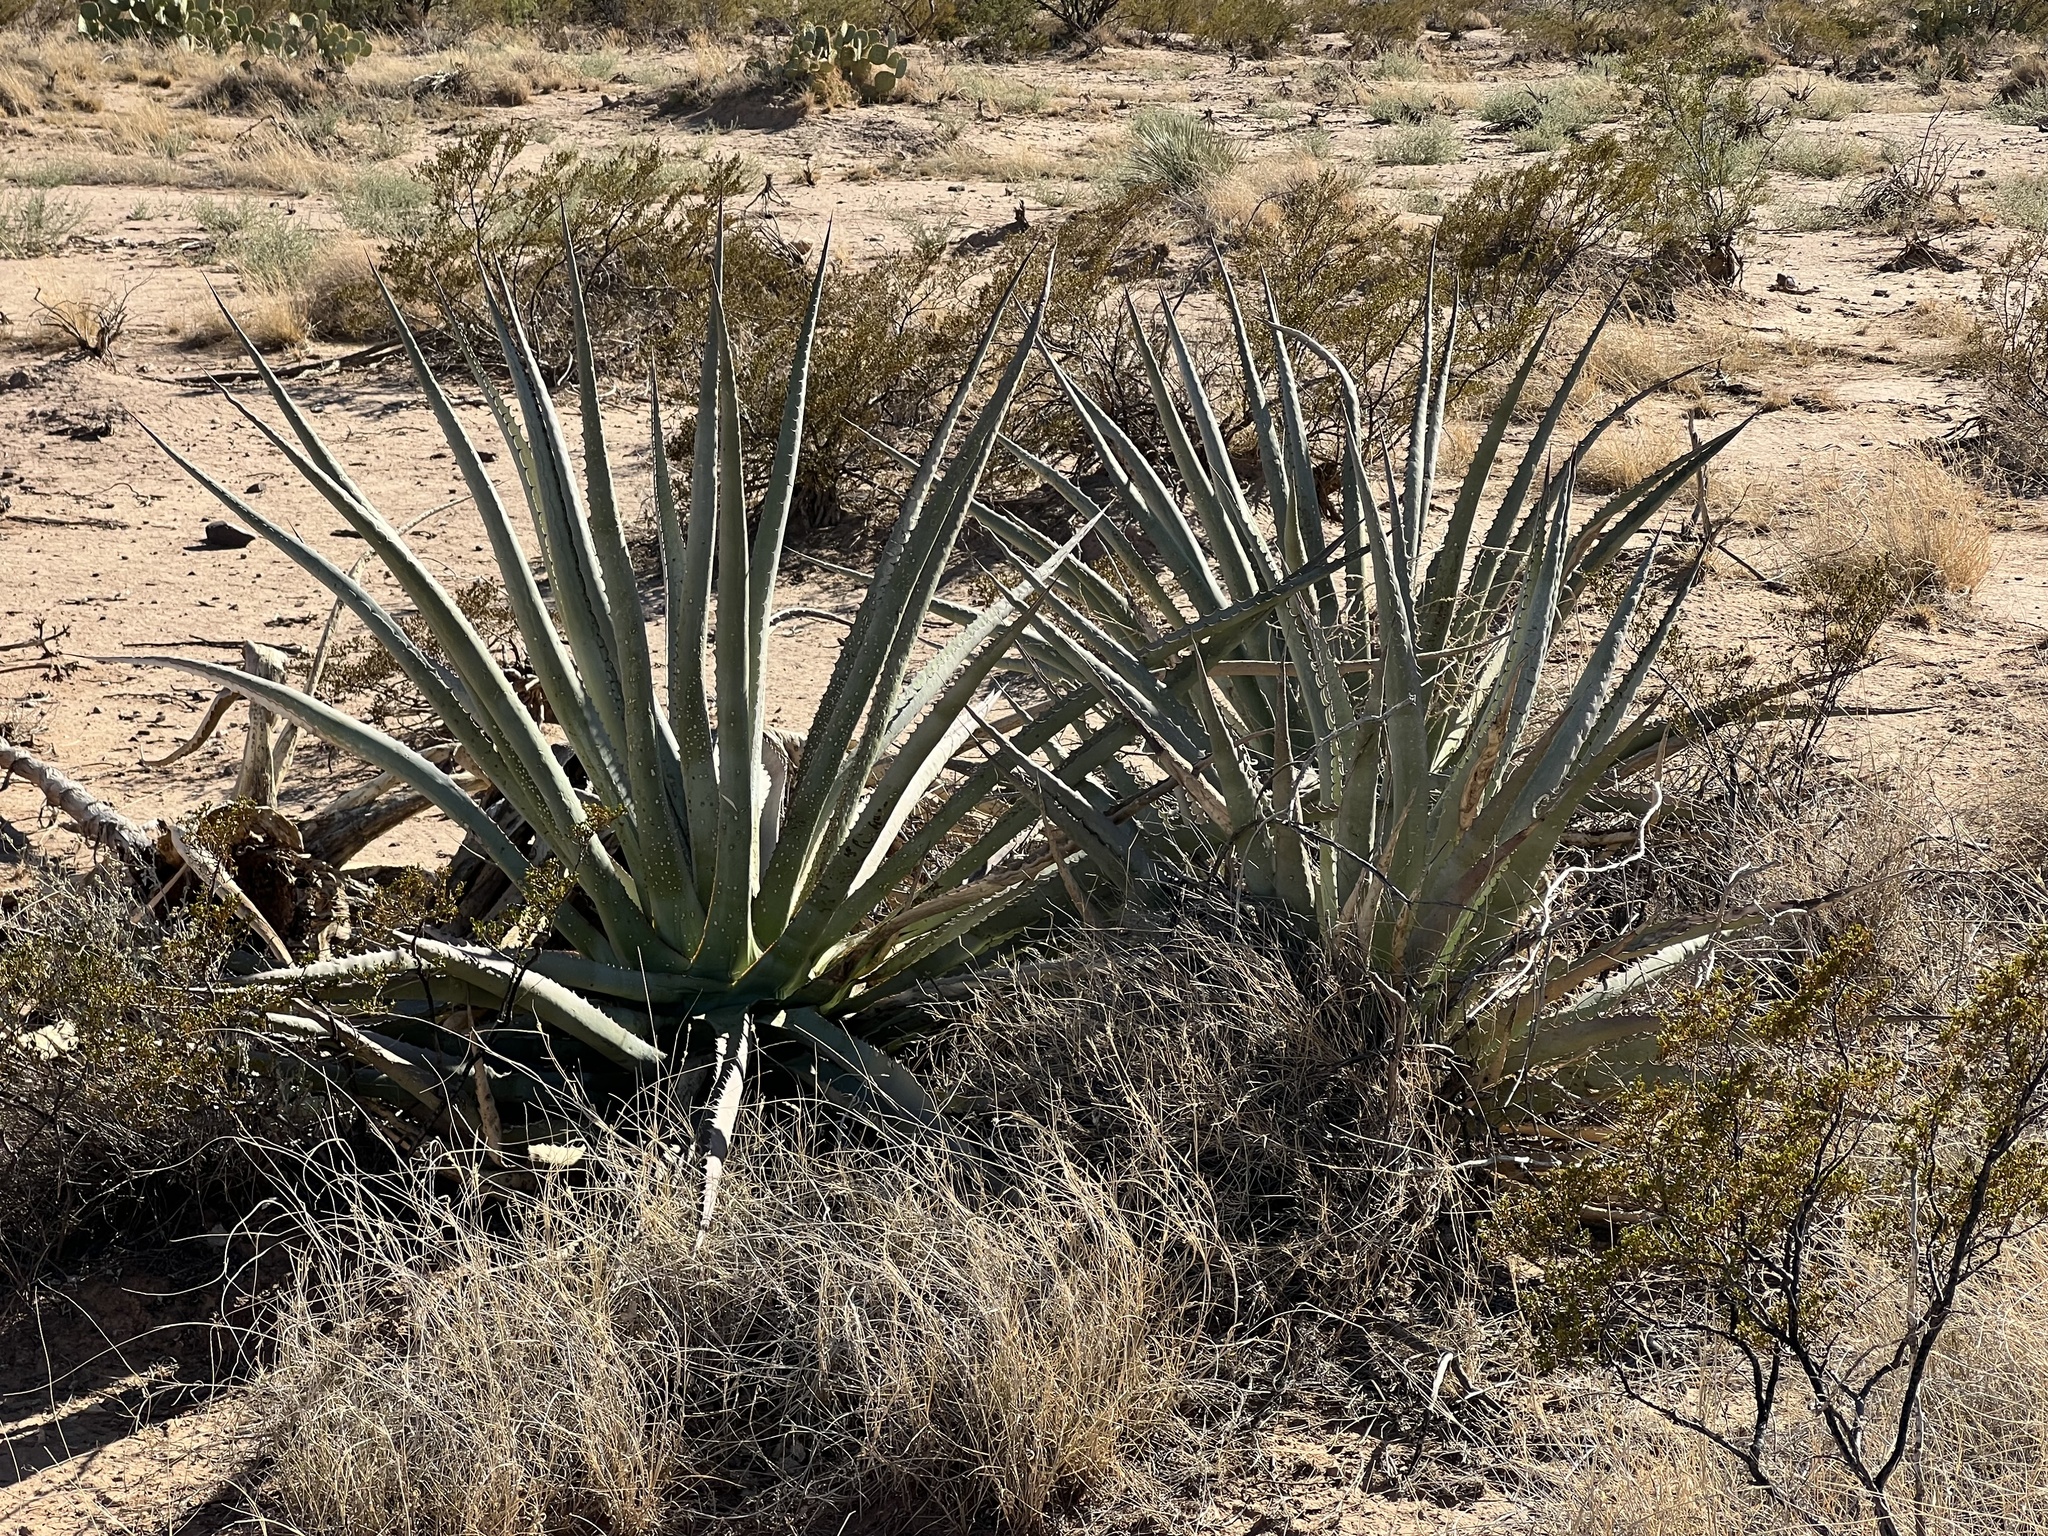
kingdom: Plantae
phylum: Tracheophyta
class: Liliopsida
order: Asparagales
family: Asparagaceae
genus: Agave
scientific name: Agave palmeri
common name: Palmer agave
